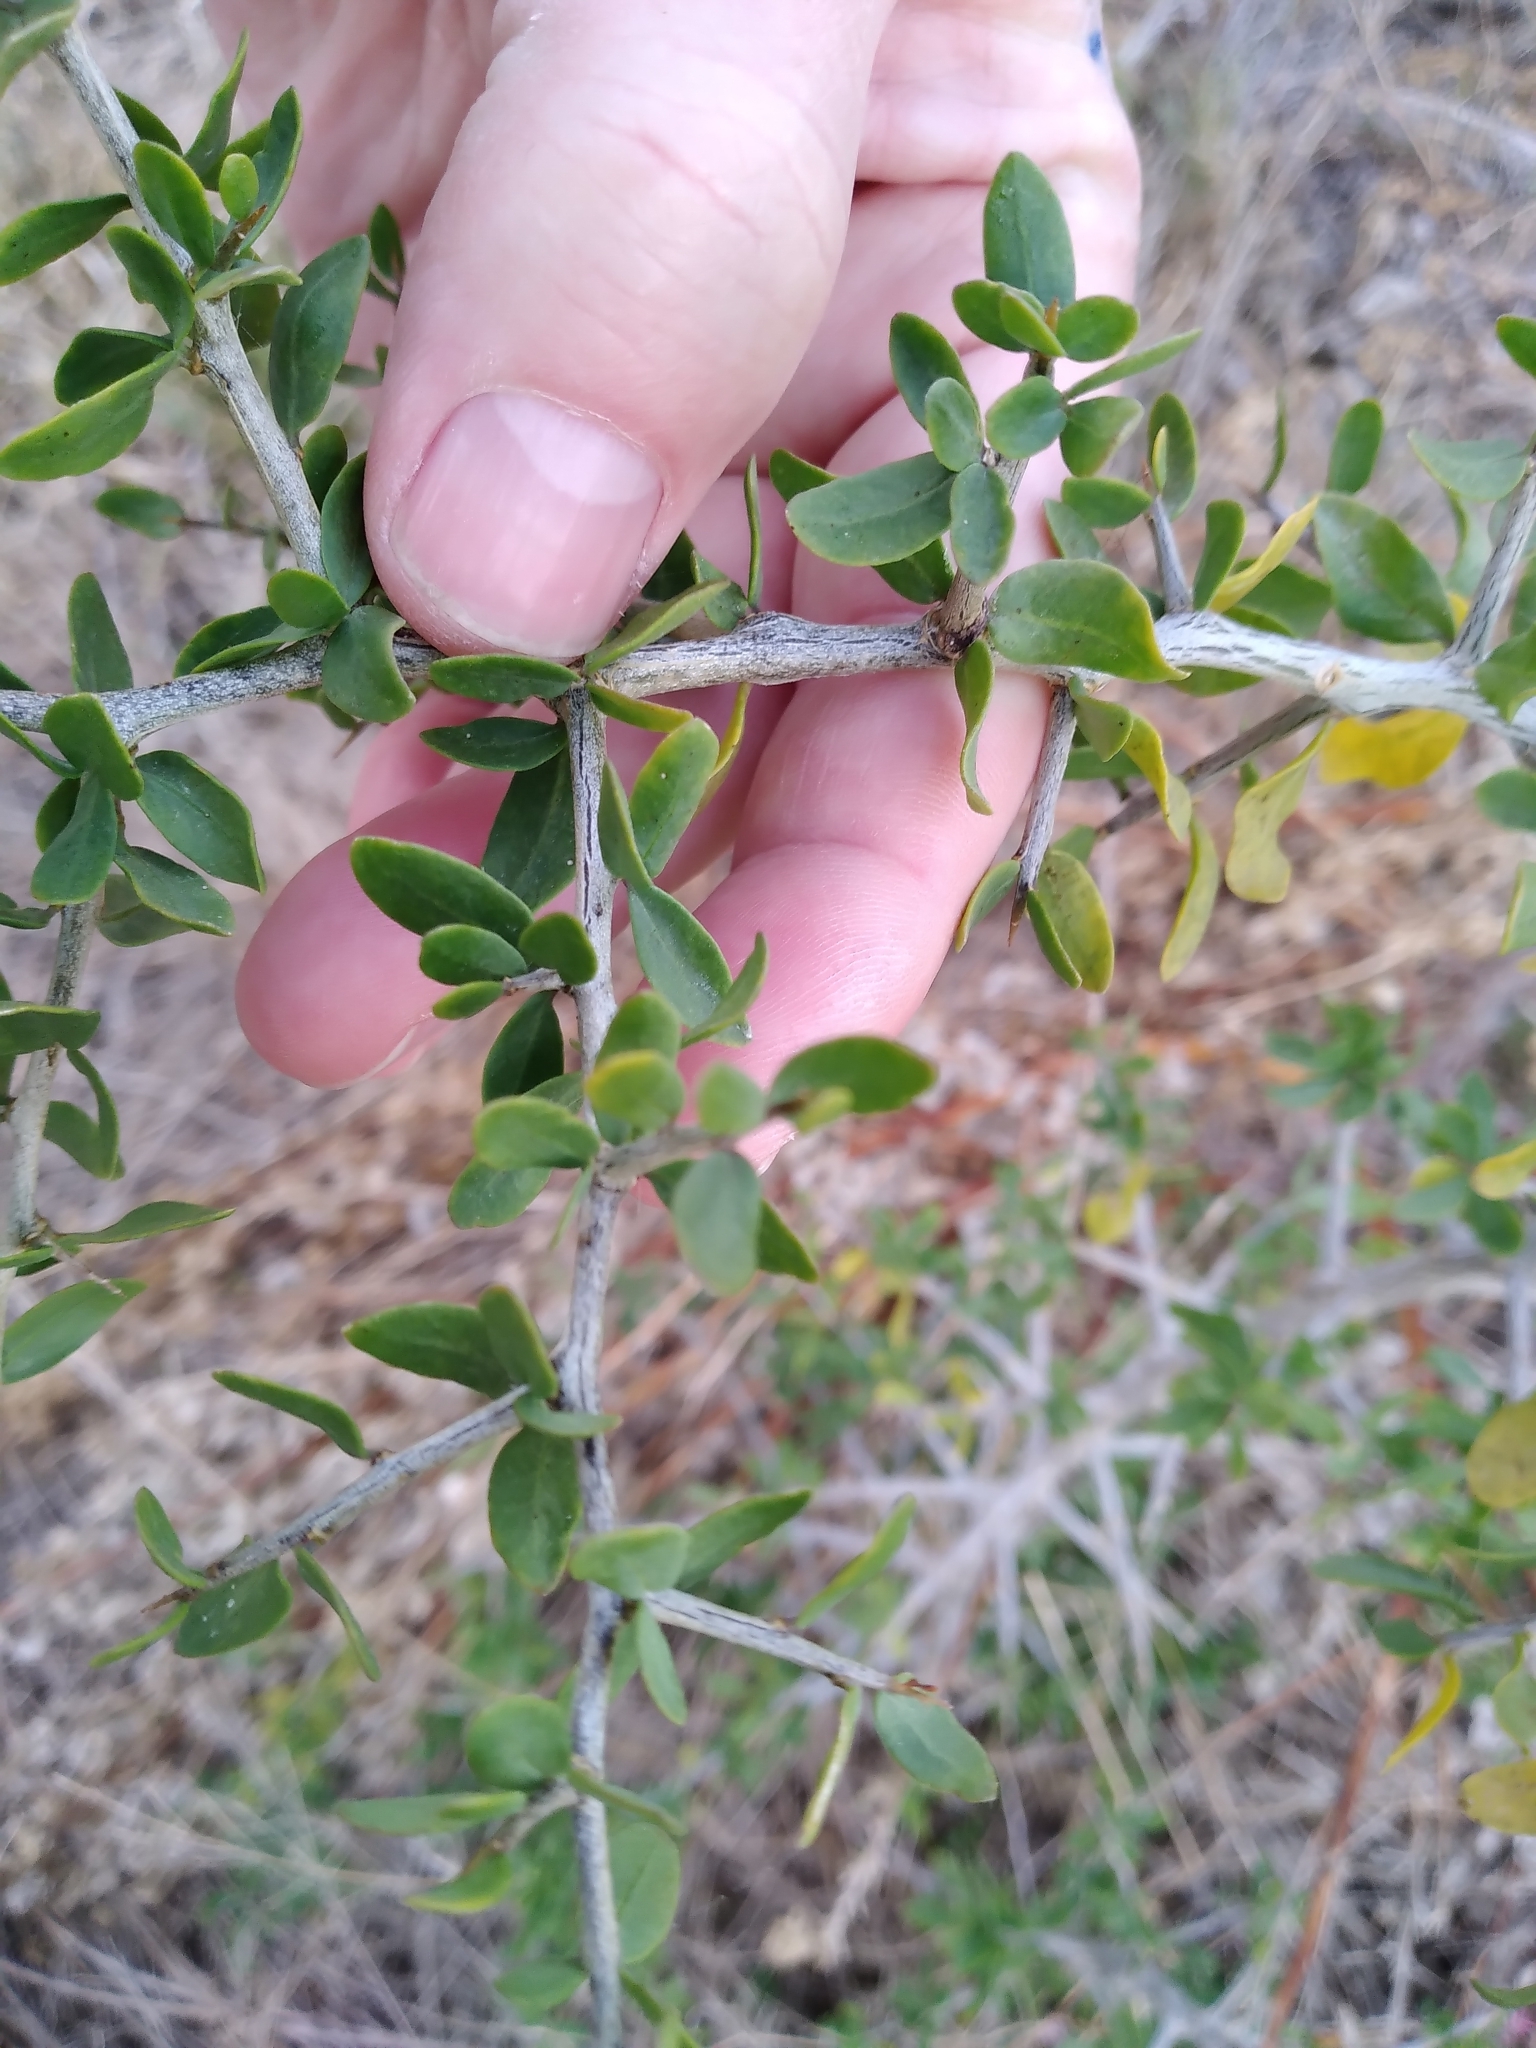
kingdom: Plantae
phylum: Tracheophyta
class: Magnoliopsida
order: Solanales
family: Solanaceae
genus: Lycium
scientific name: Lycium ferocissimum
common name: African boxthorn
